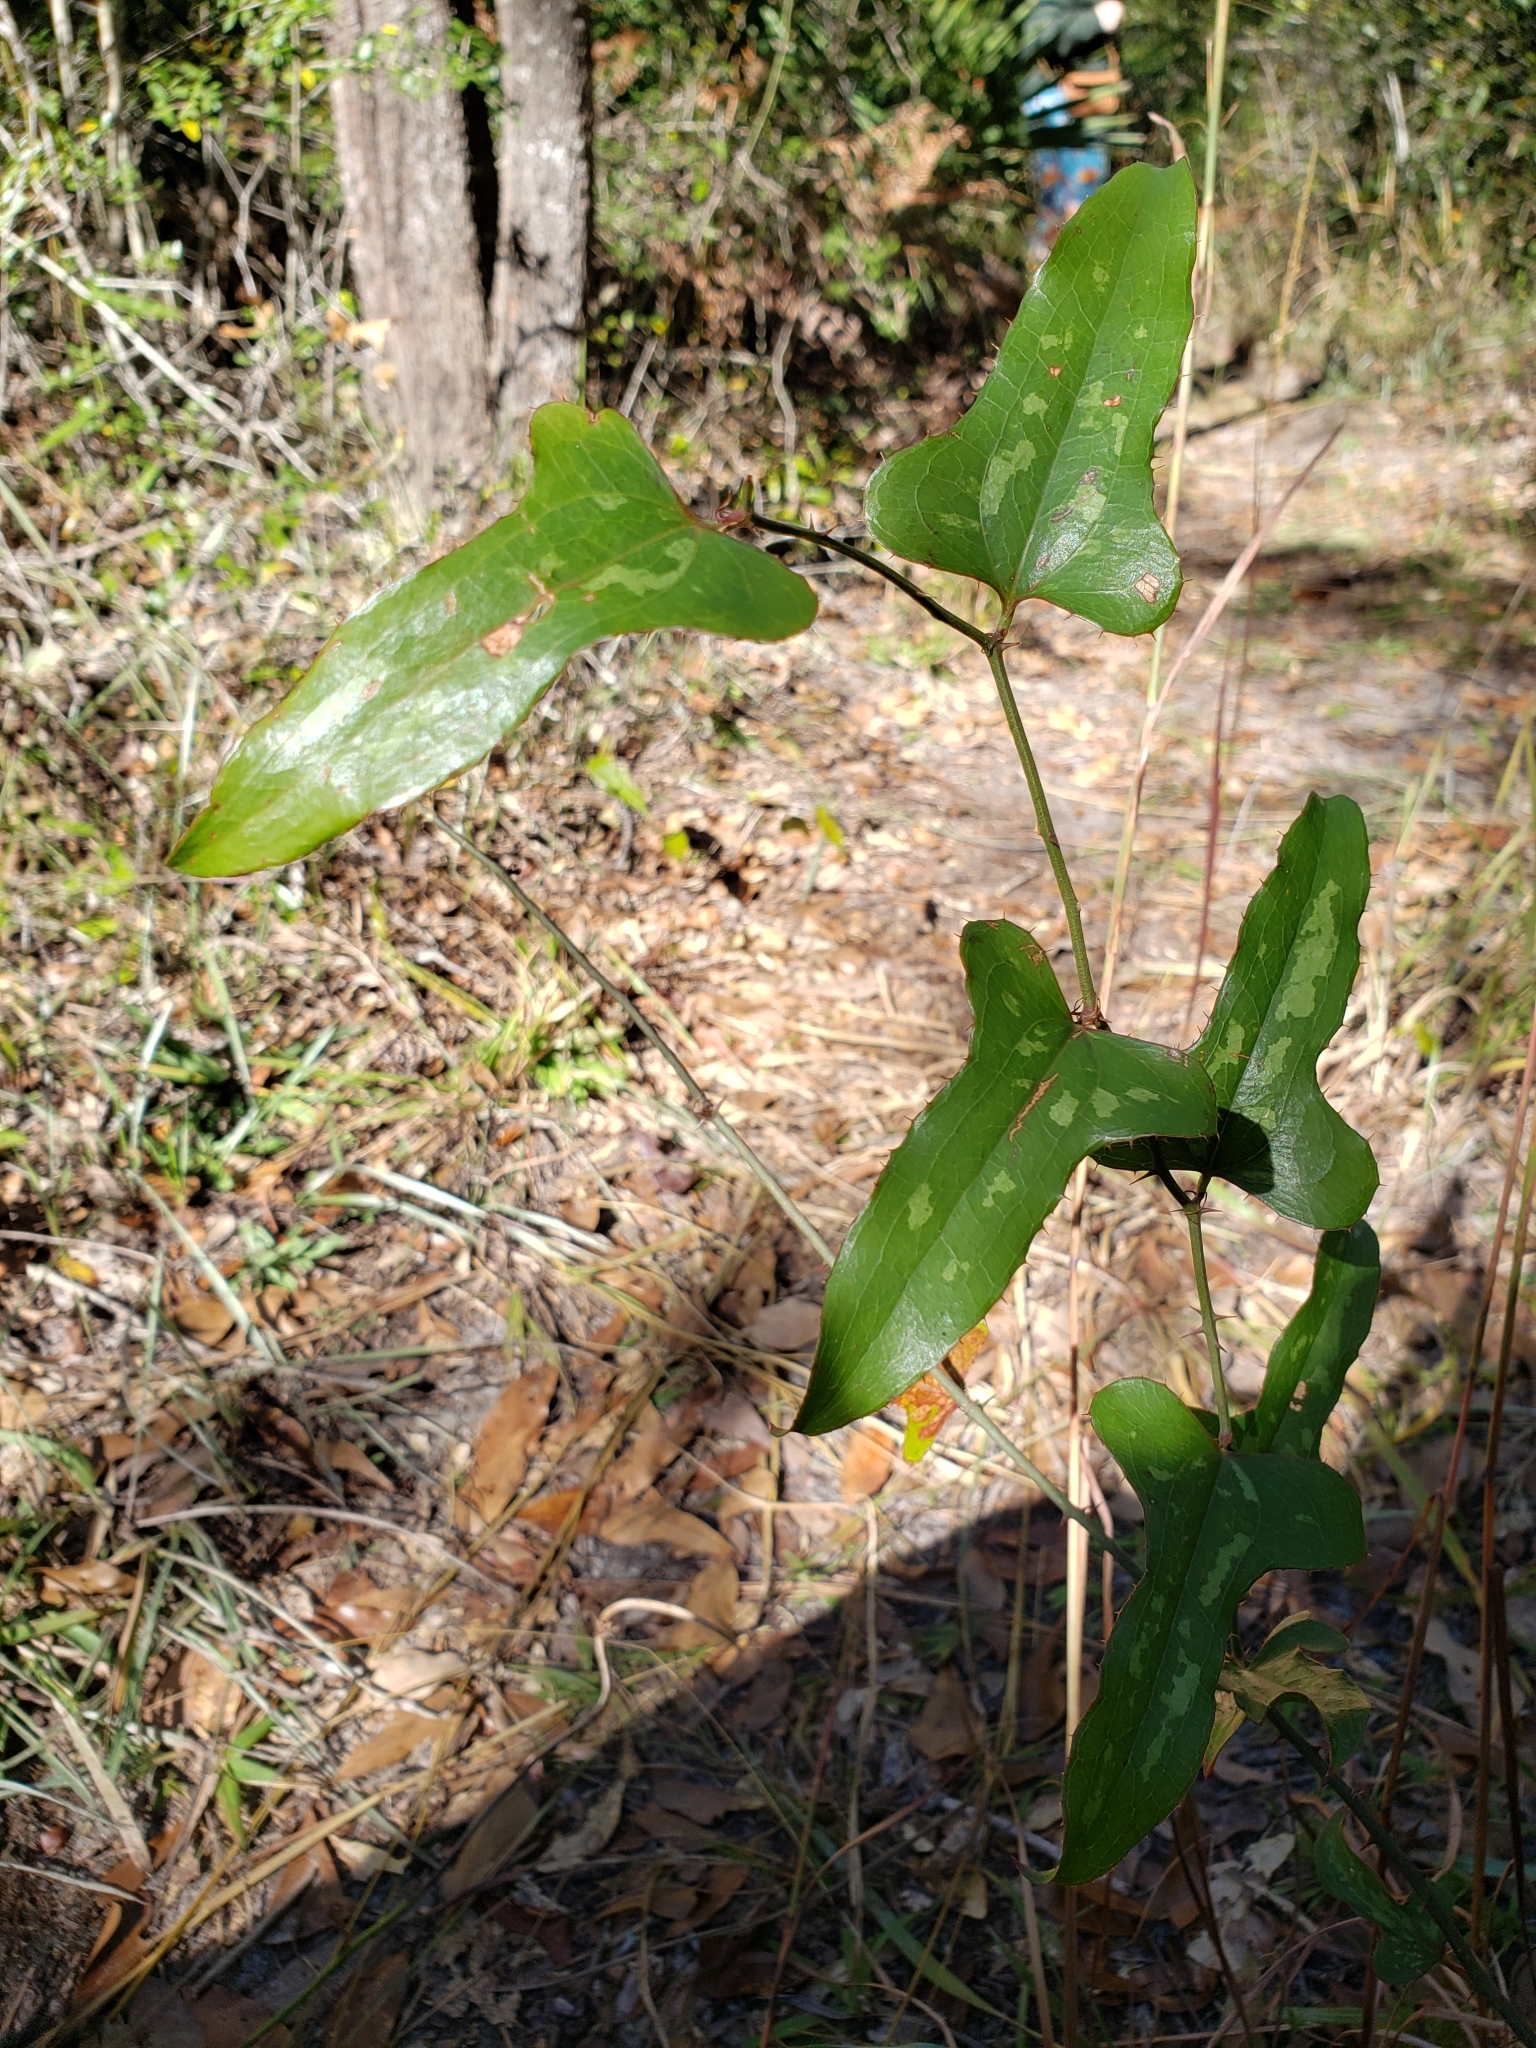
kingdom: Plantae
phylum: Tracheophyta
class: Liliopsida
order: Liliales
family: Smilacaceae
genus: Smilax
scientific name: Smilax bona-nox
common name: Catbrier
